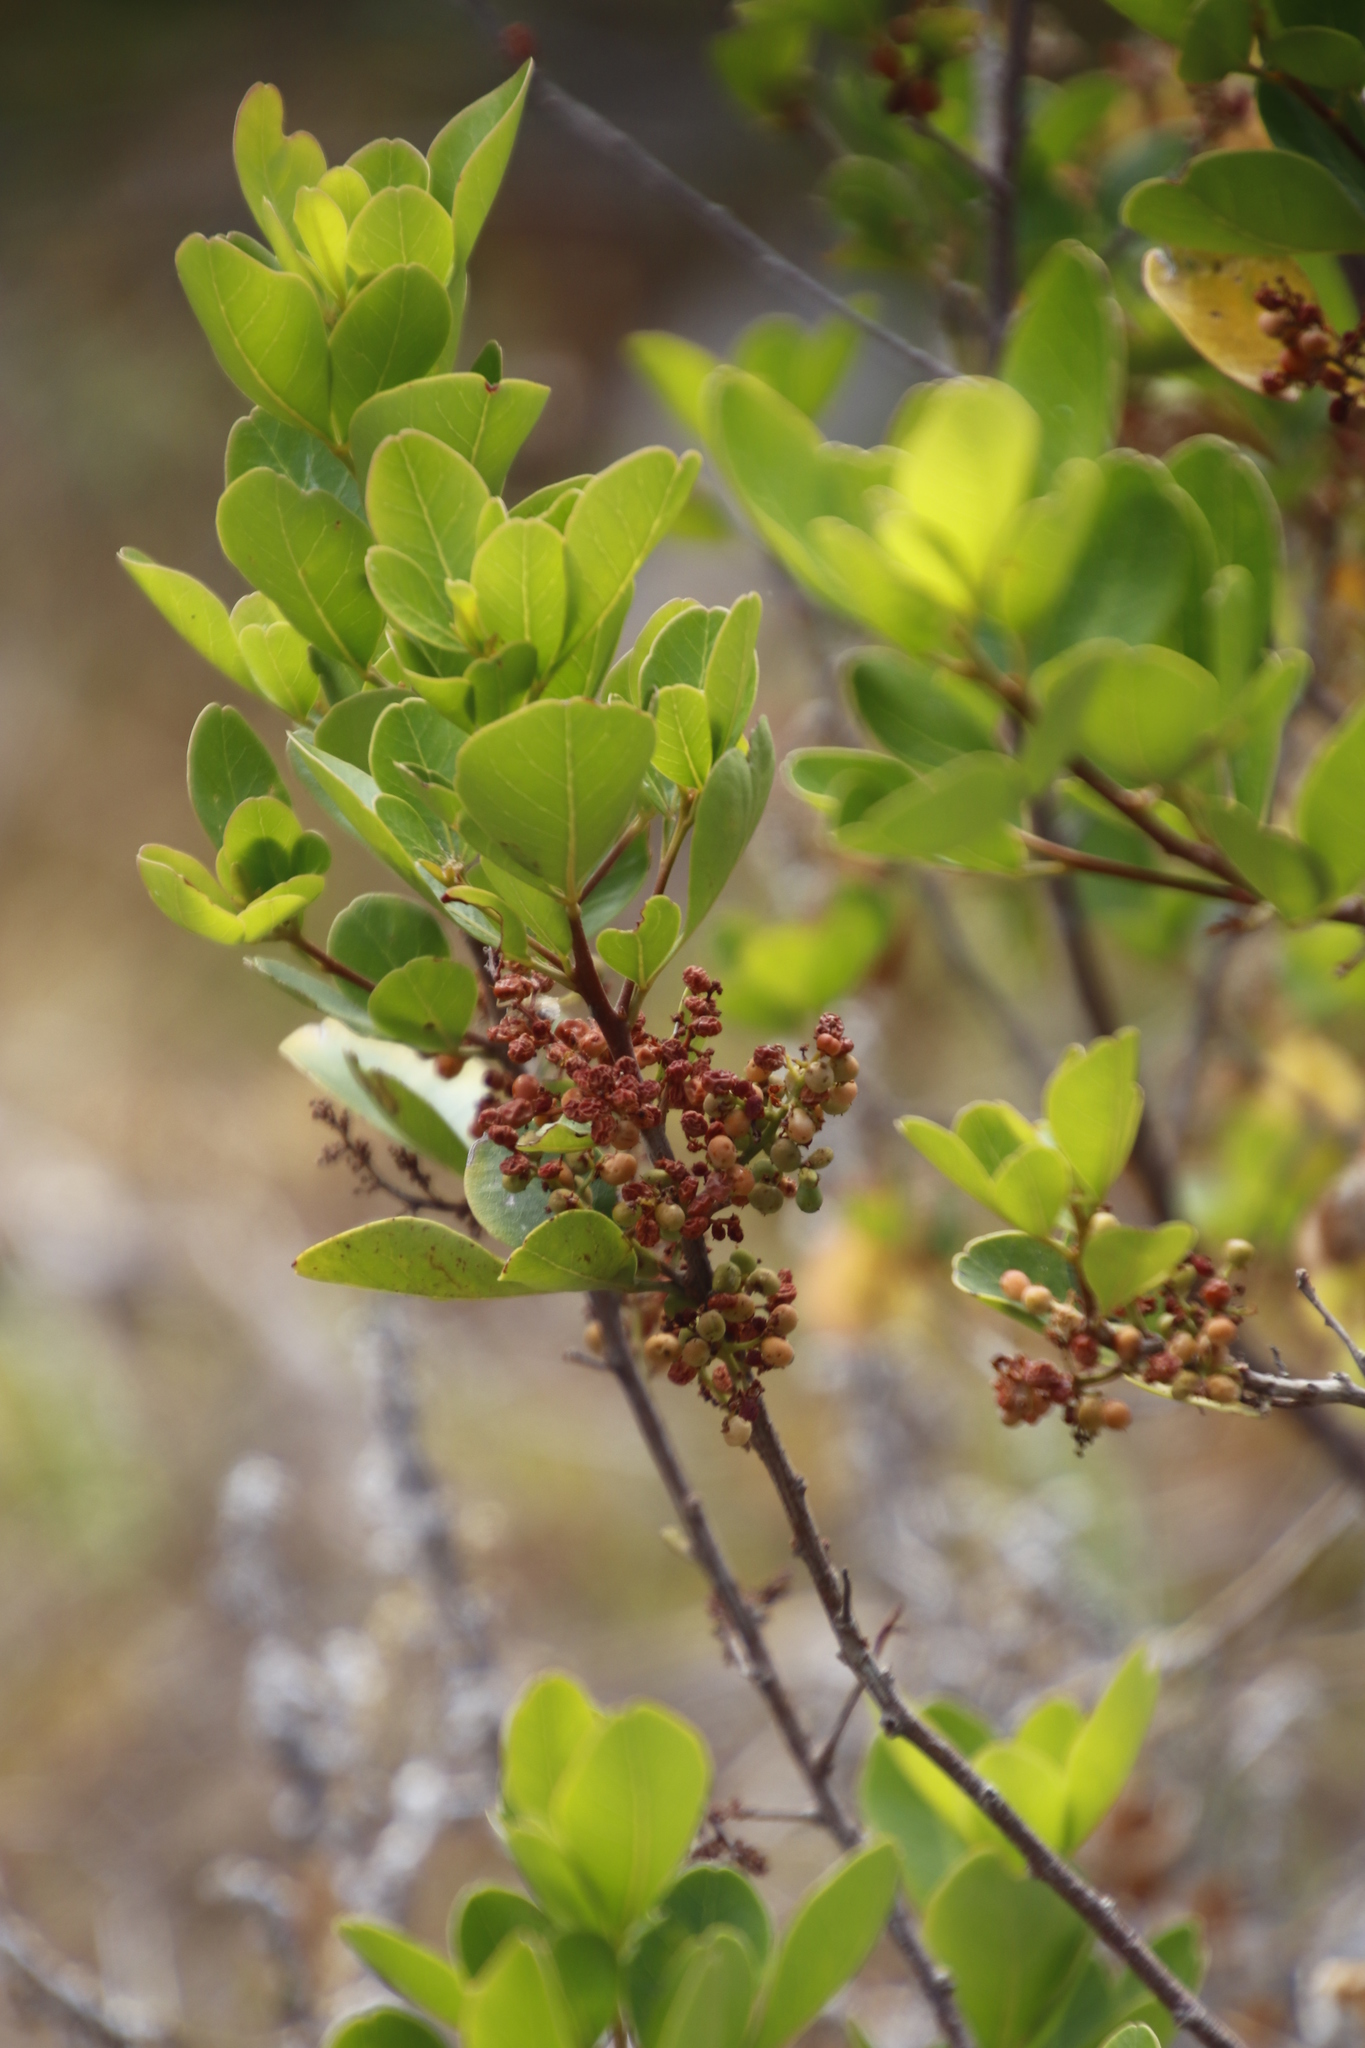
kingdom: Plantae
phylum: Tracheophyta
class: Magnoliopsida
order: Sapindales
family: Anacardiaceae
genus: Searsia
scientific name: Searsia lucida
